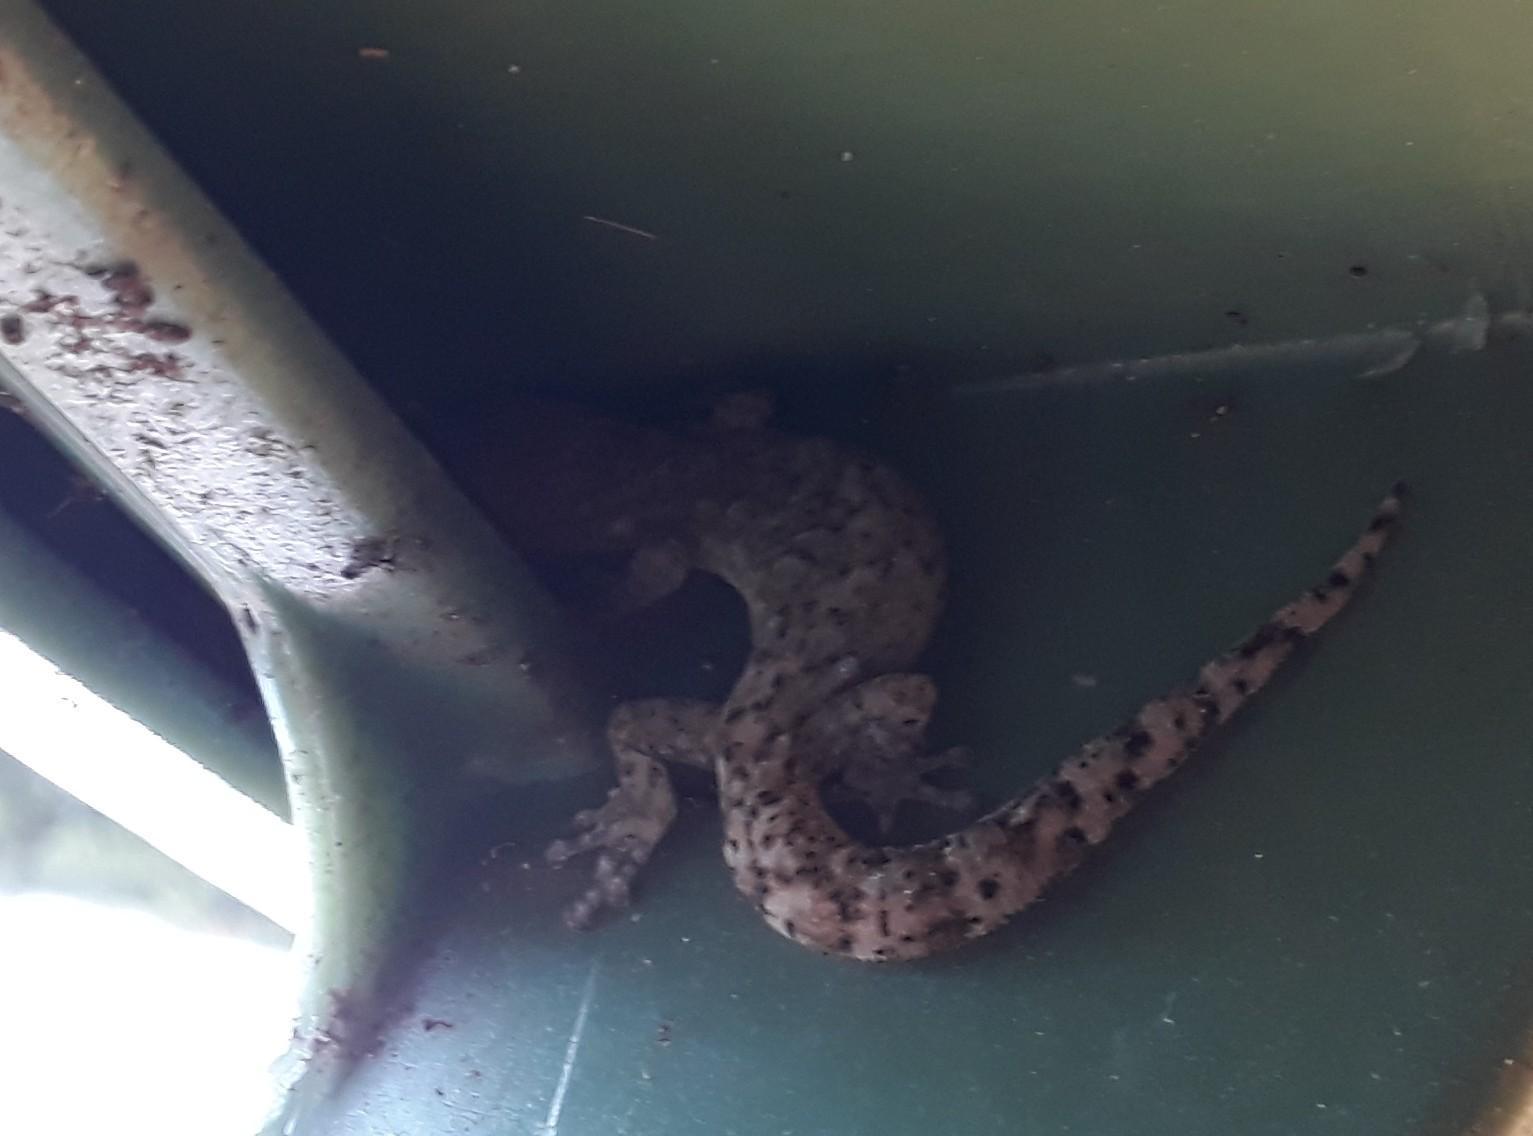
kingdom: Animalia
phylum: Chordata
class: Squamata
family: Gekkonidae
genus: Afrogecko
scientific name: Afrogecko porphyreus
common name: Marbled leaf-toed gecko
